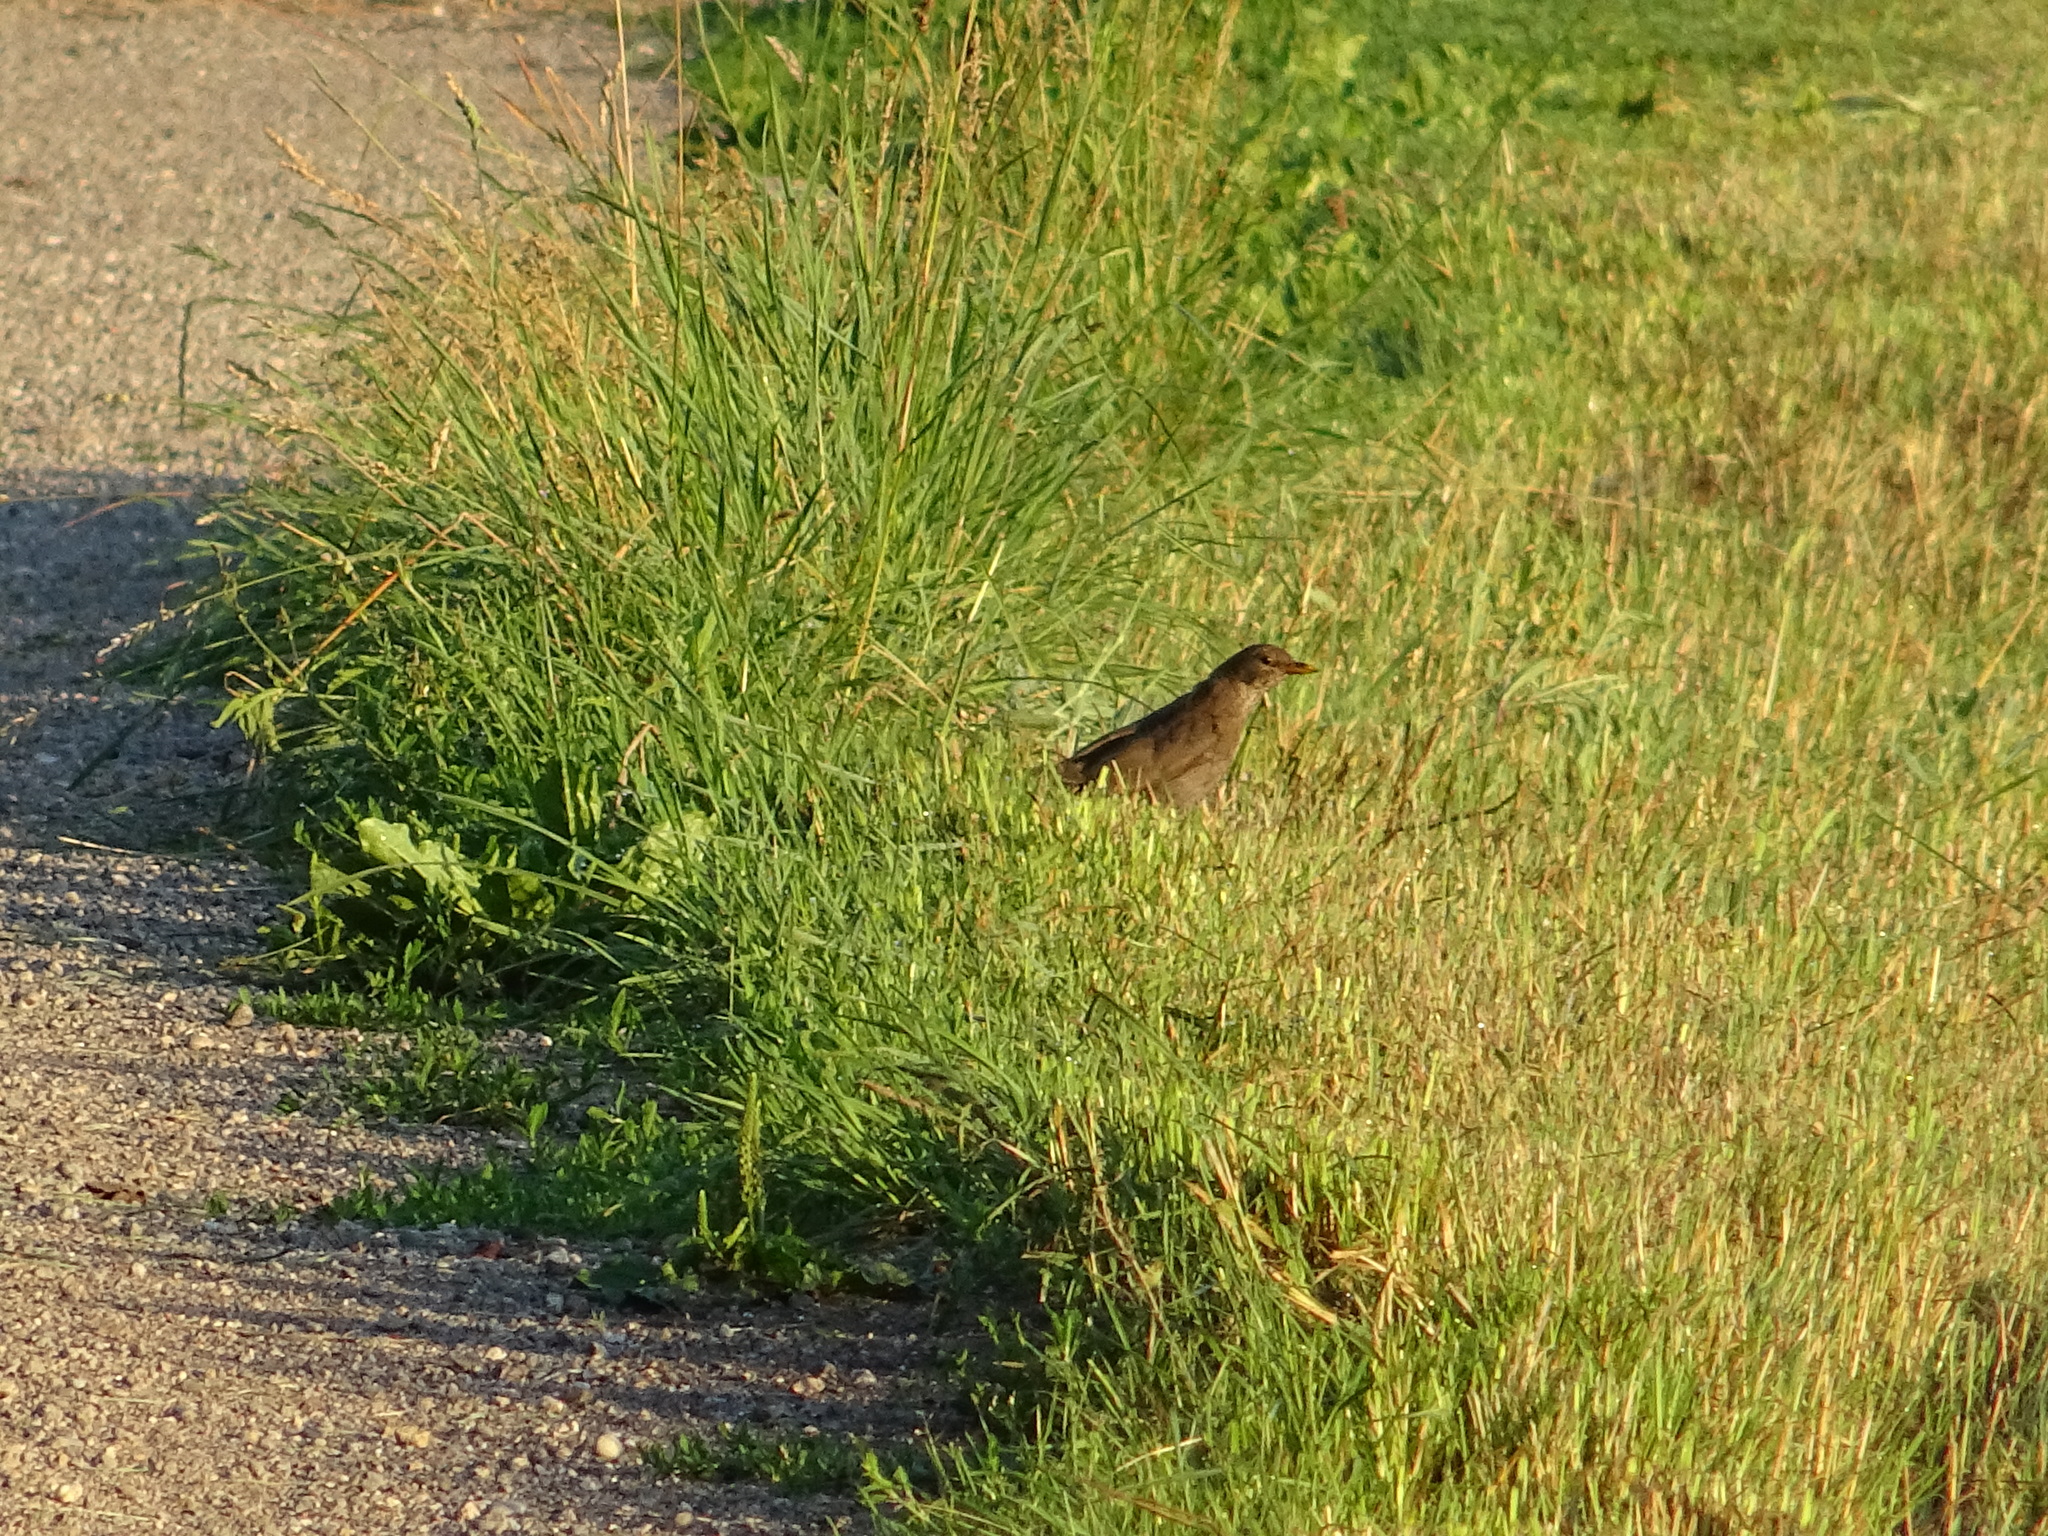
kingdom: Animalia
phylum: Chordata
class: Aves
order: Passeriformes
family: Turdidae
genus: Turdus
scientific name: Turdus merula
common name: Common blackbird
